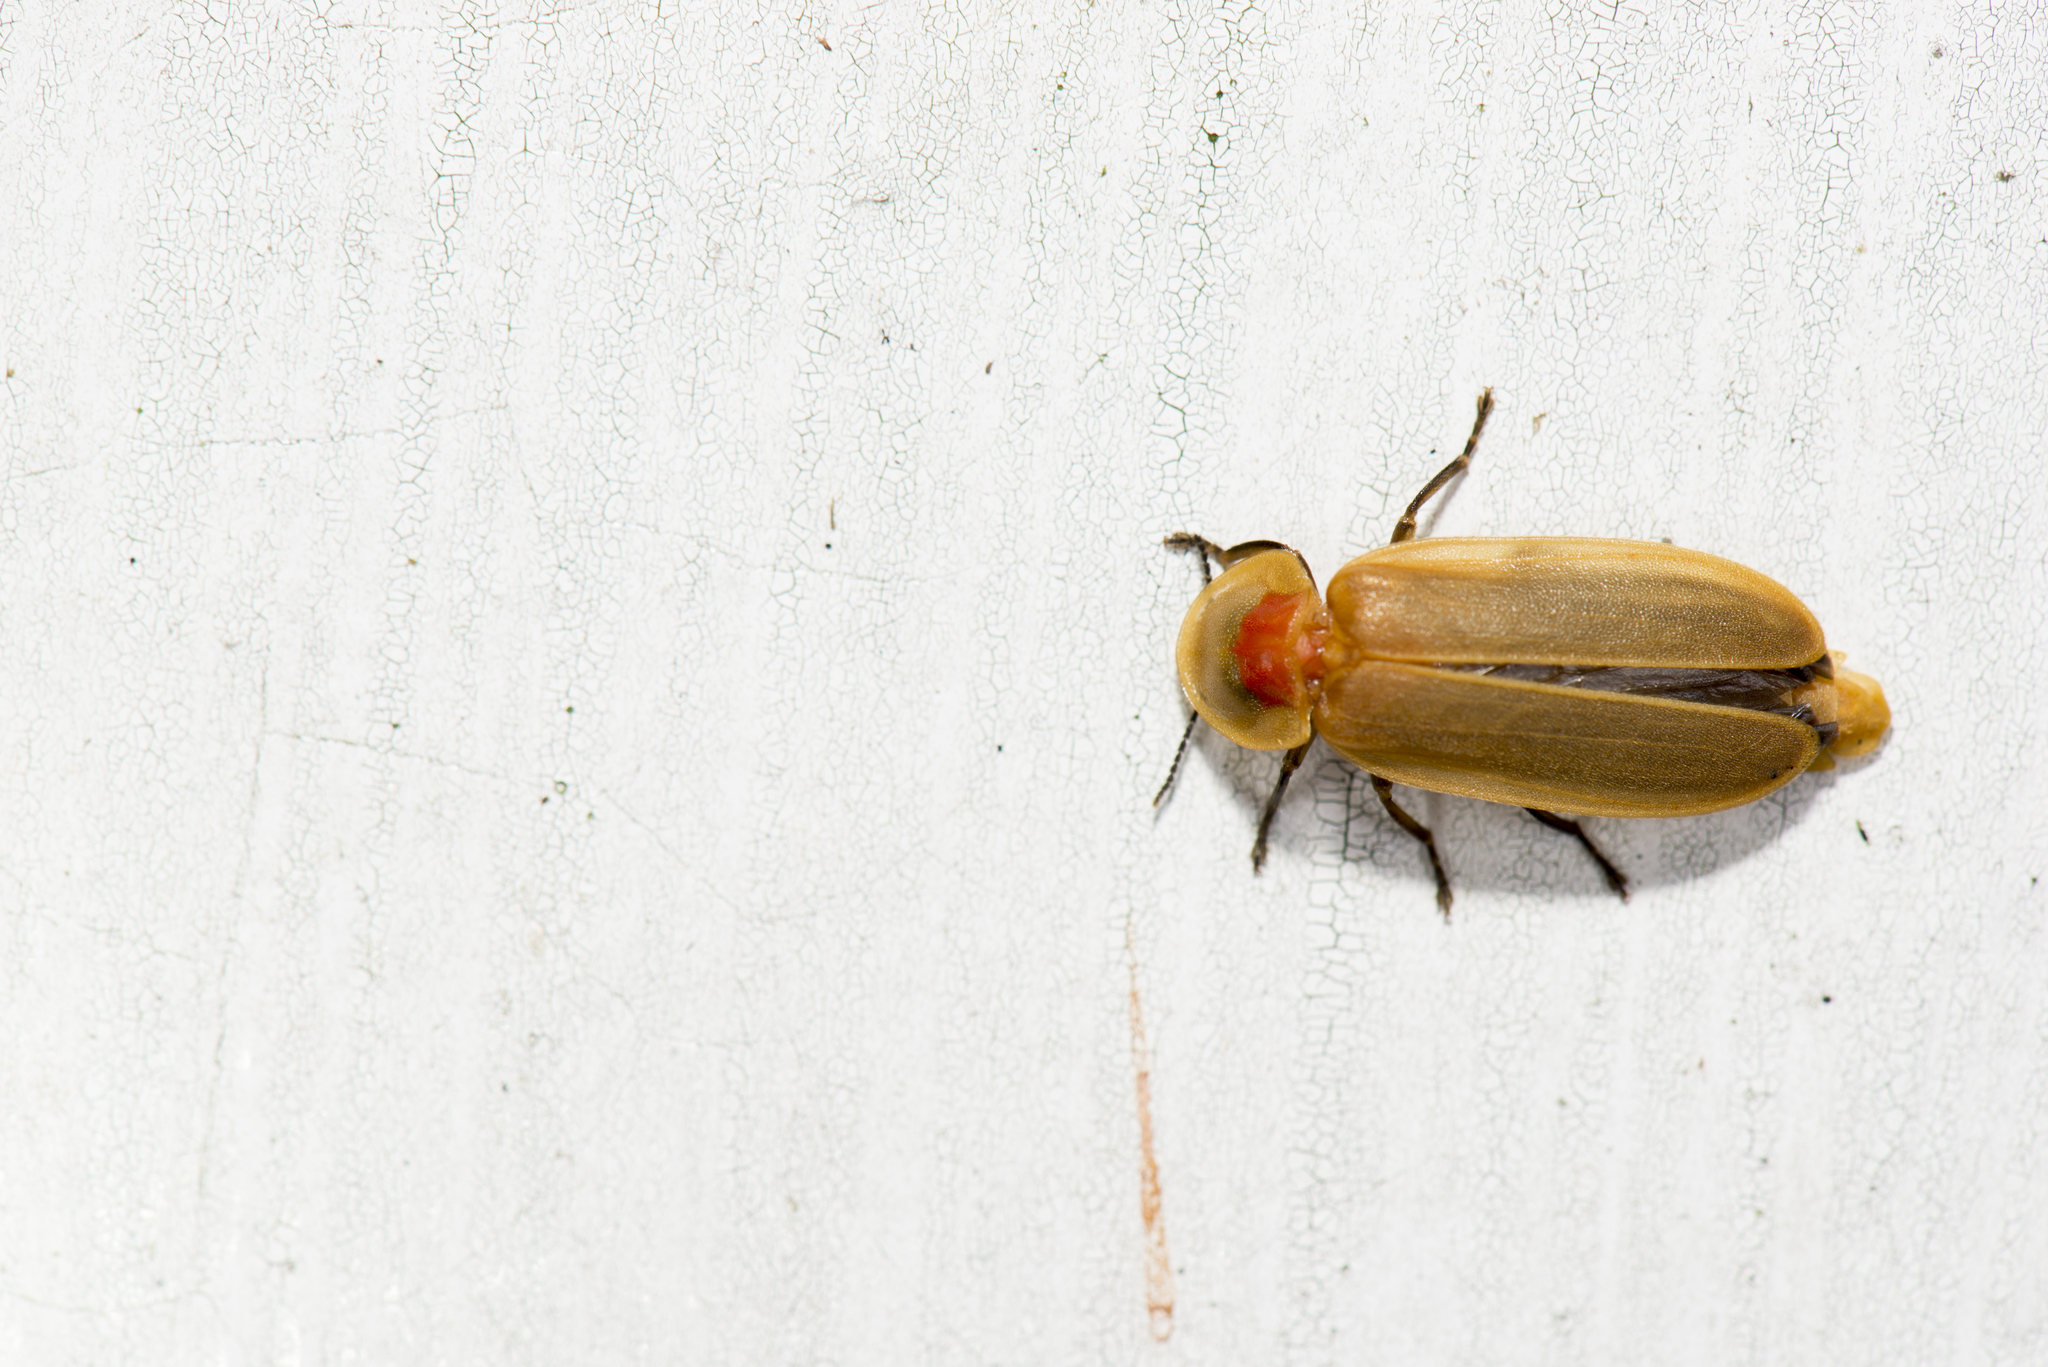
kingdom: Animalia
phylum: Arthropoda
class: Insecta
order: Coleoptera
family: Lampyridae
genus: Diaphanes
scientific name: Diaphanes citrinus
